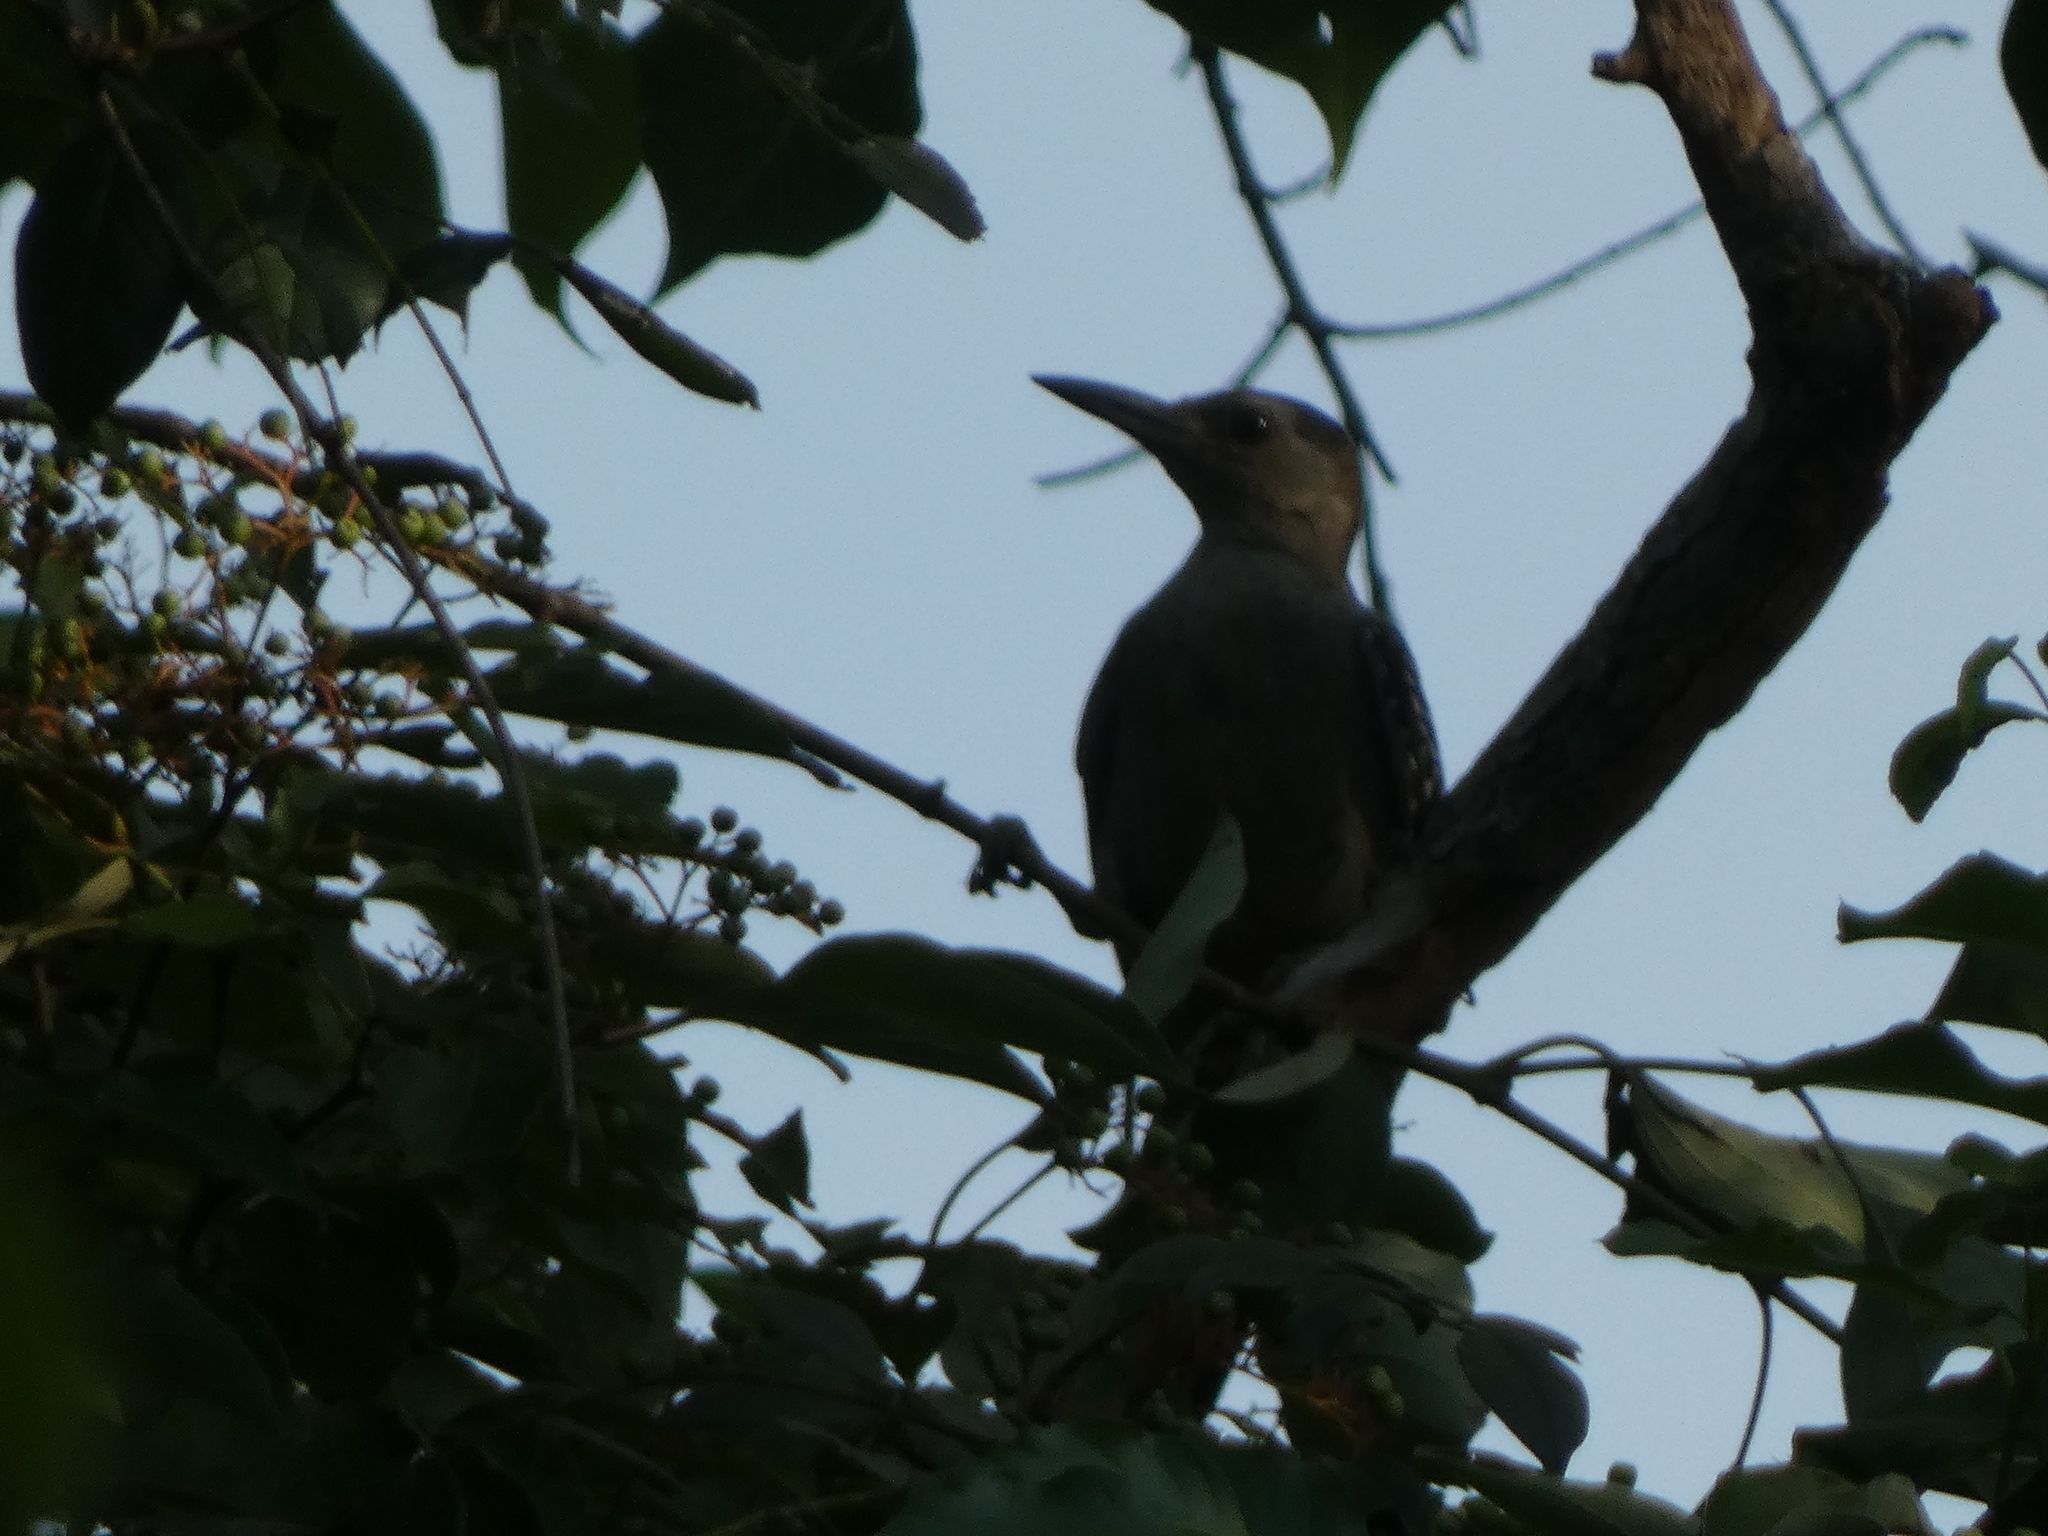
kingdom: Animalia
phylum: Chordata
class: Aves
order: Piciformes
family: Picidae
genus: Melanerpes
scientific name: Melanerpes carolinus
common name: Red-bellied woodpecker
